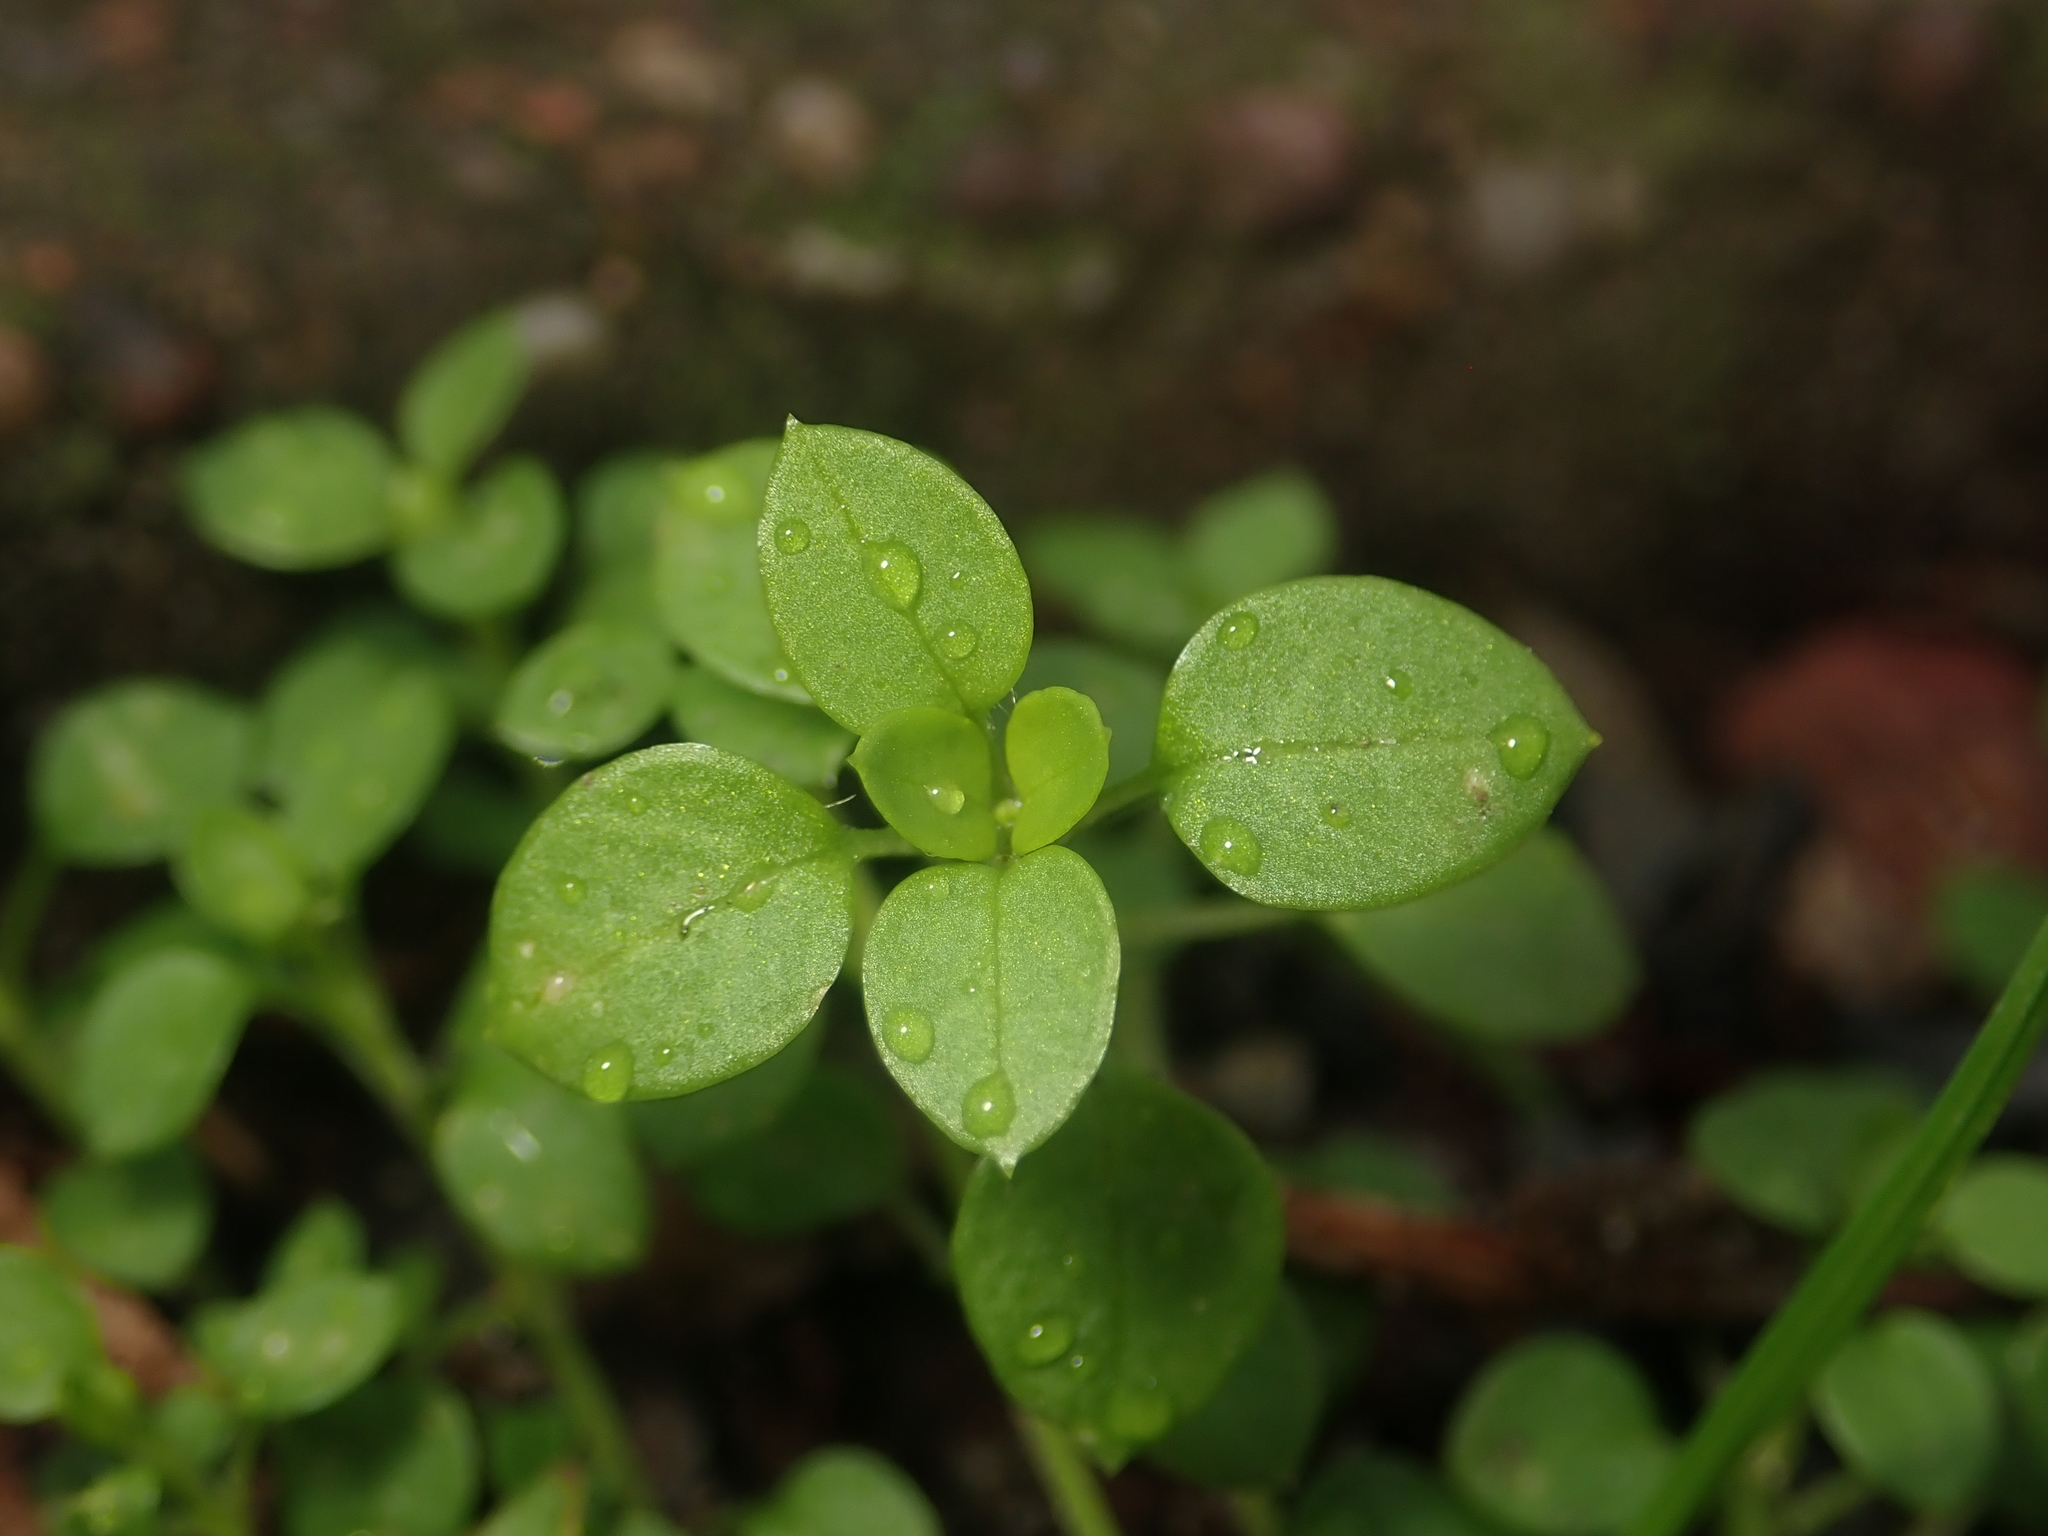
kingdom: Plantae
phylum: Tracheophyta
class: Magnoliopsida
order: Caryophyllales
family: Caryophyllaceae
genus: Stellaria
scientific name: Stellaria media
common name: Common chickweed
